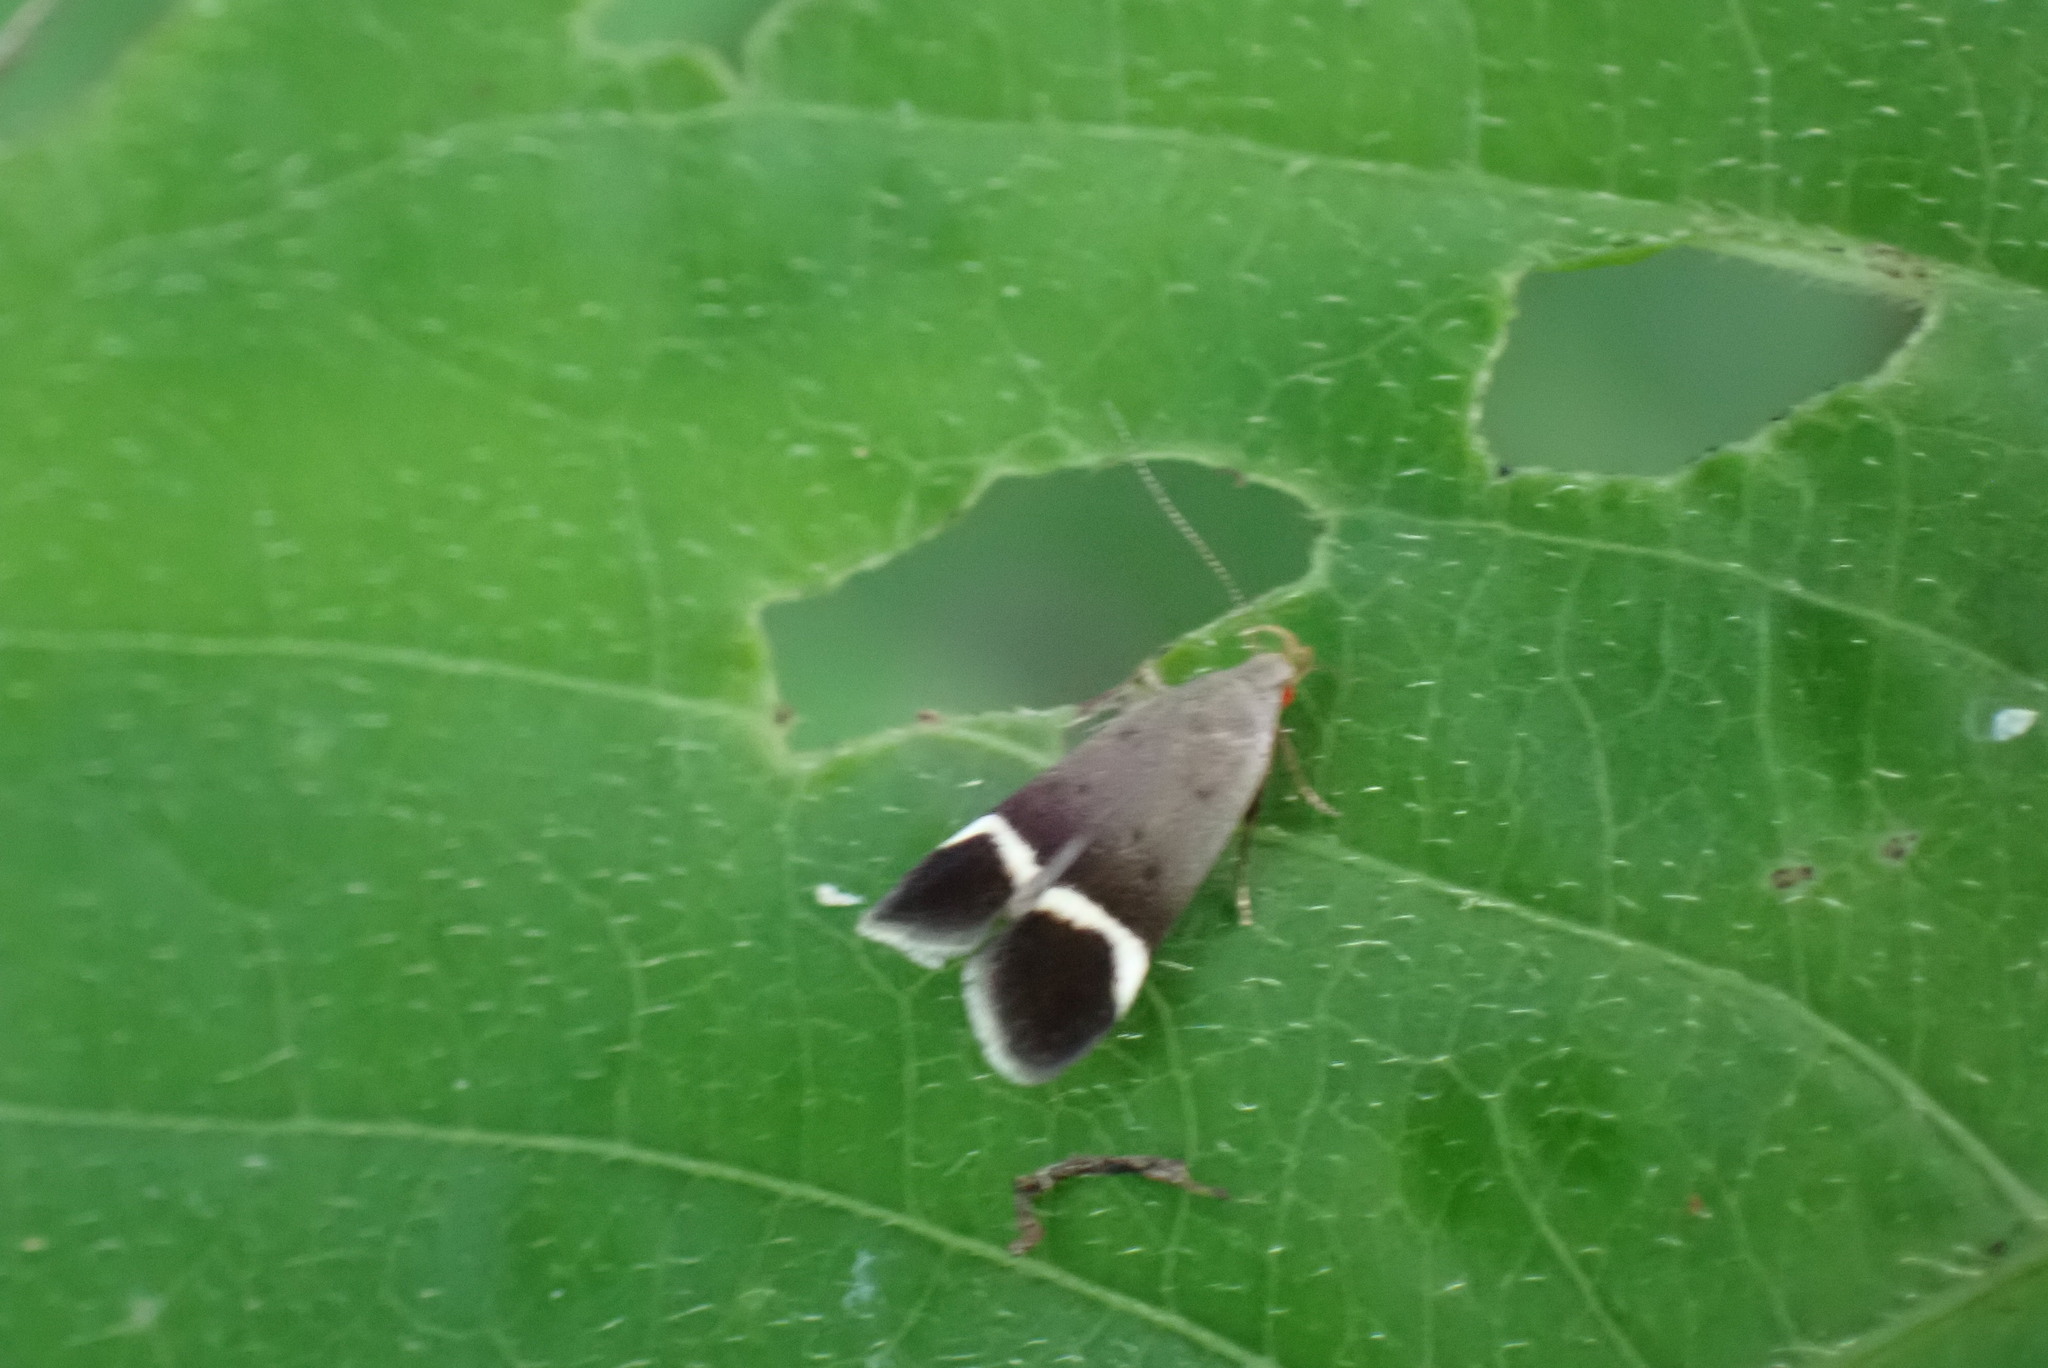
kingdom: Animalia
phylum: Arthropoda
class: Insecta
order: Lepidoptera
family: Gelechiidae
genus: Anacampsis
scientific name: Anacampsis agrimoniella
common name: Agrimony anacampsis moth
